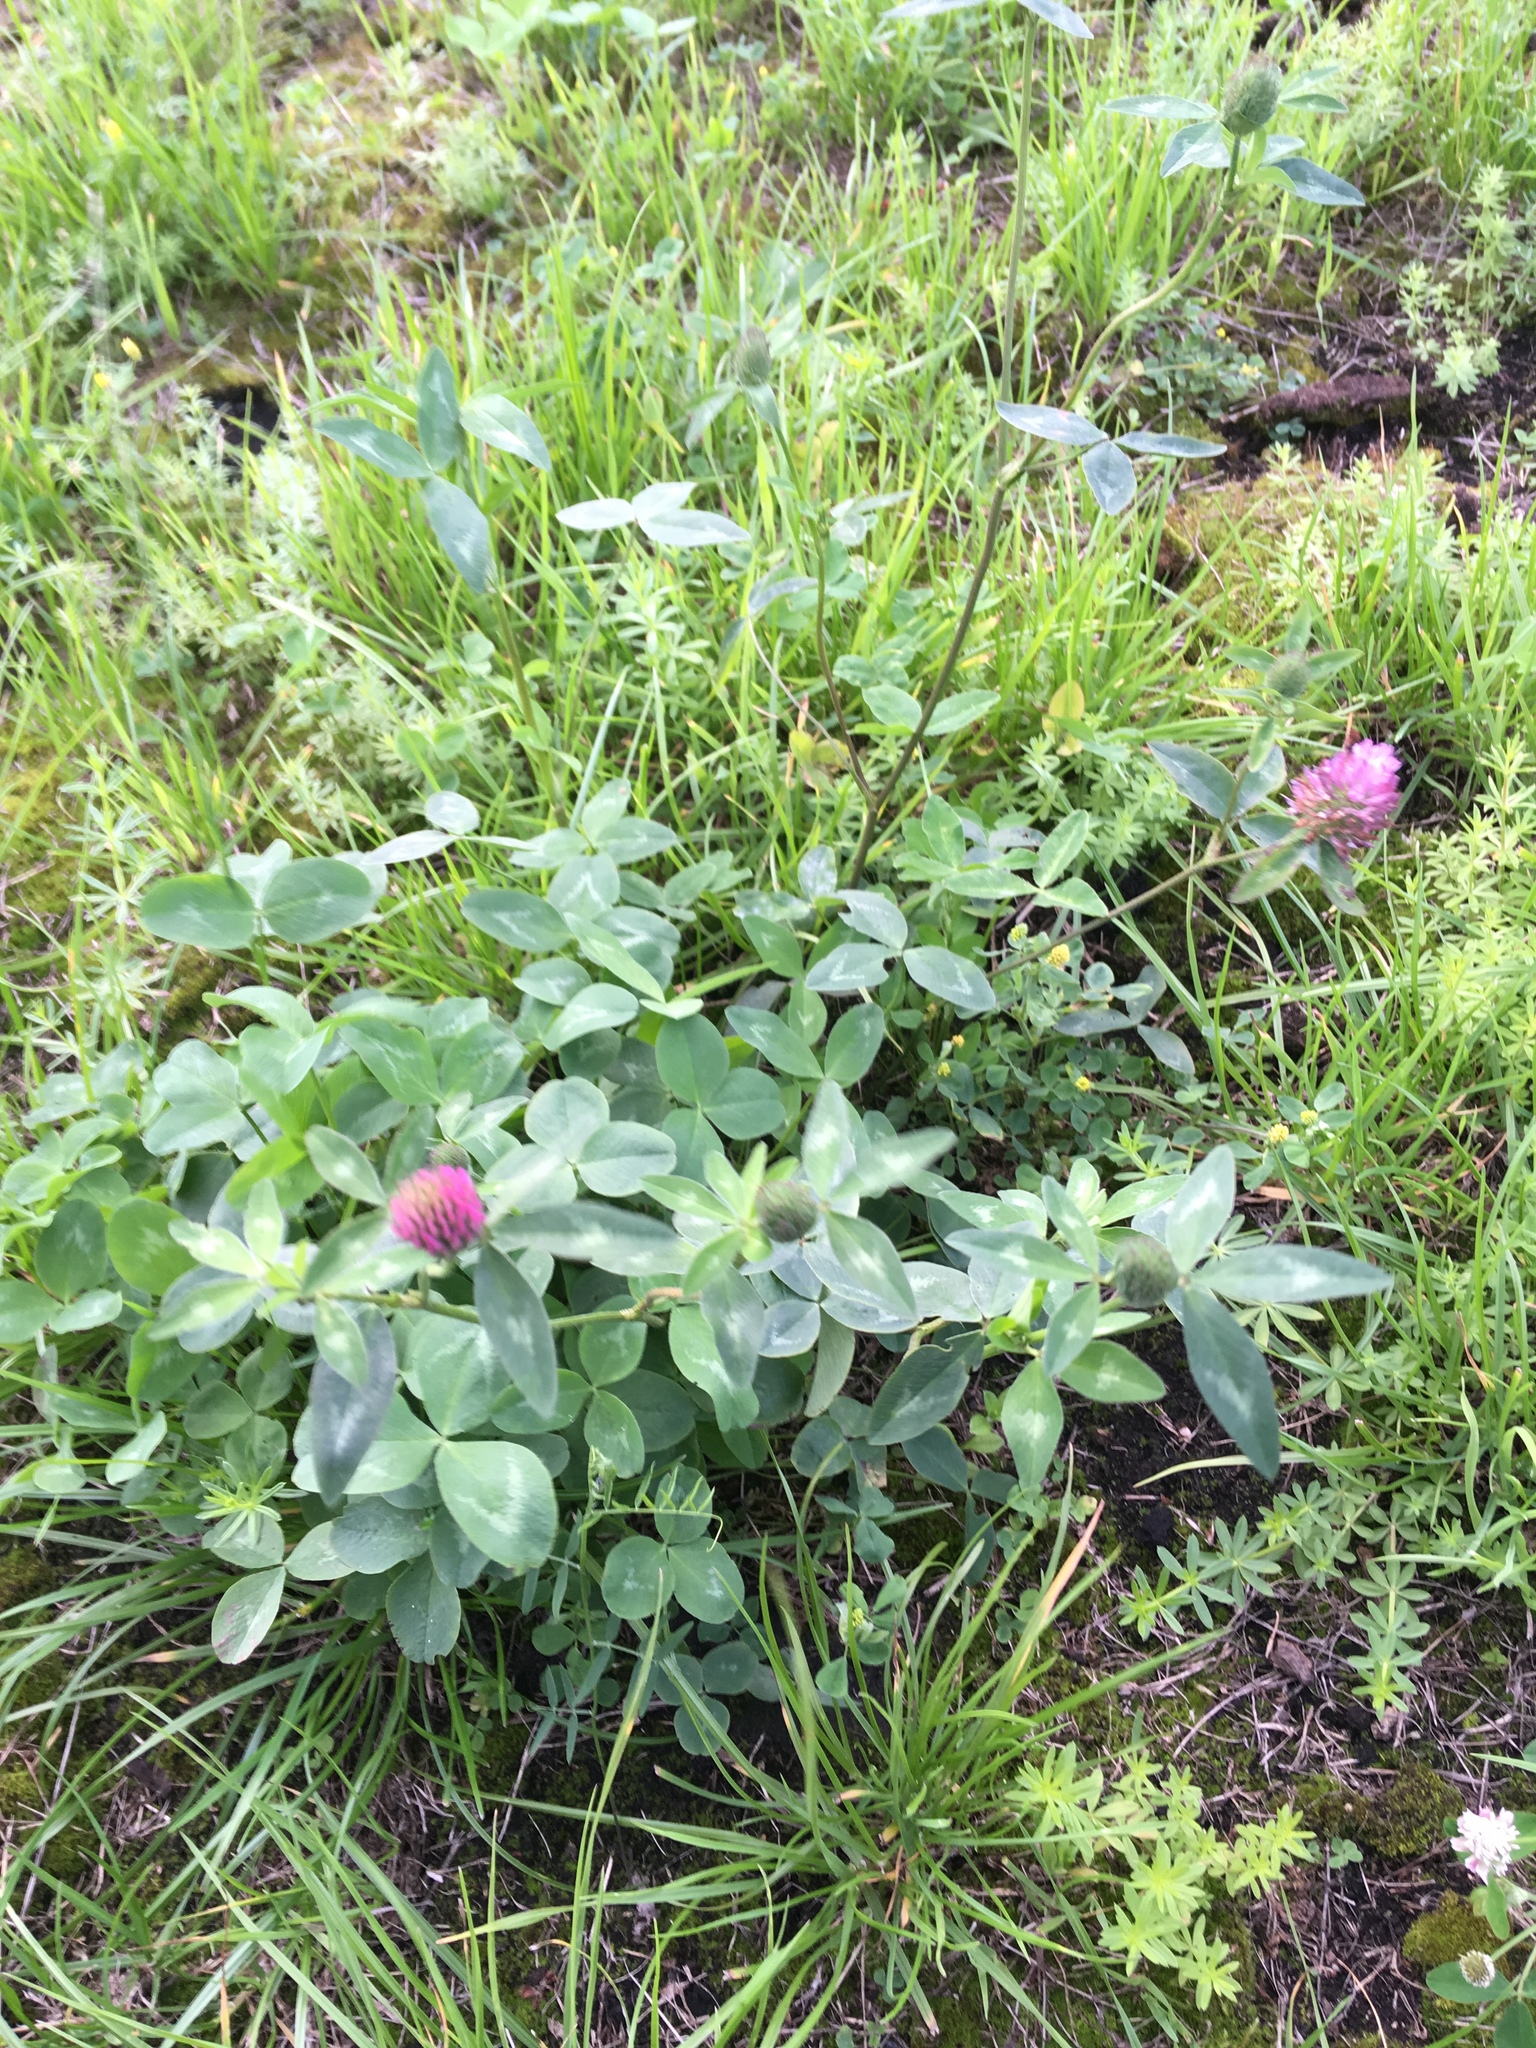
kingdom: Plantae
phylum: Tracheophyta
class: Magnoliopsida
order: Fabales
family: Fabaceae
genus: Trifolium
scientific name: Trifolium pratense
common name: Red clover
